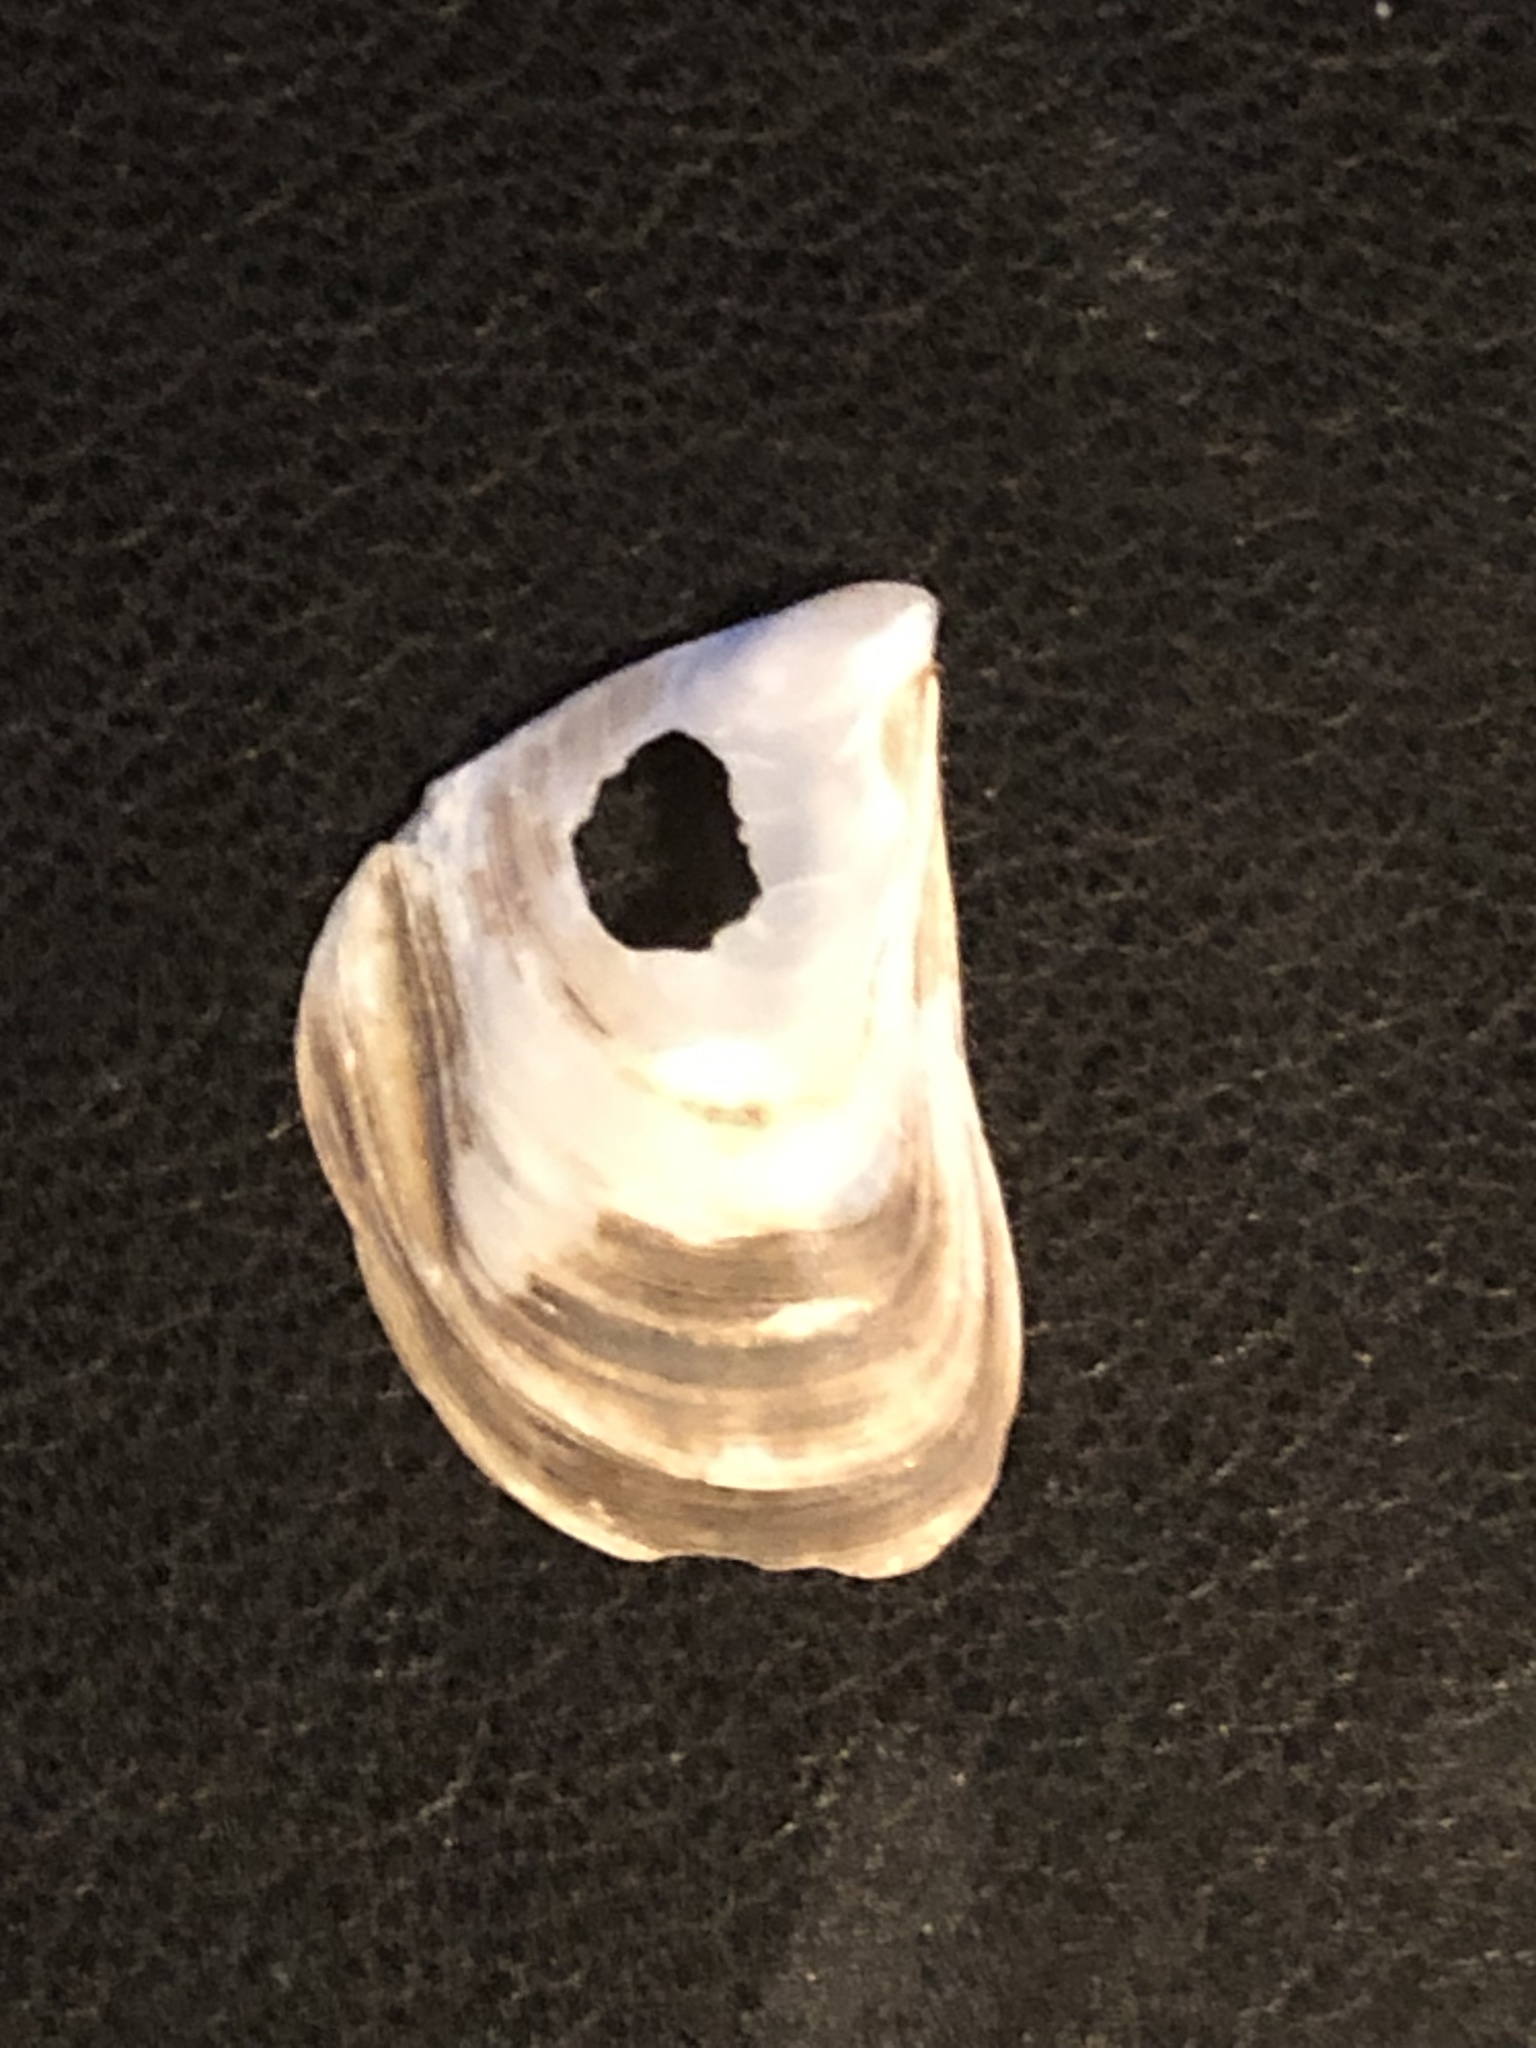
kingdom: Animalia
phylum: Mollusca
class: Bivalvia
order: Myida
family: Dreissenidae
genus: Dreissena
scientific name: Dreissena bugensis
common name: Quagga mussel
